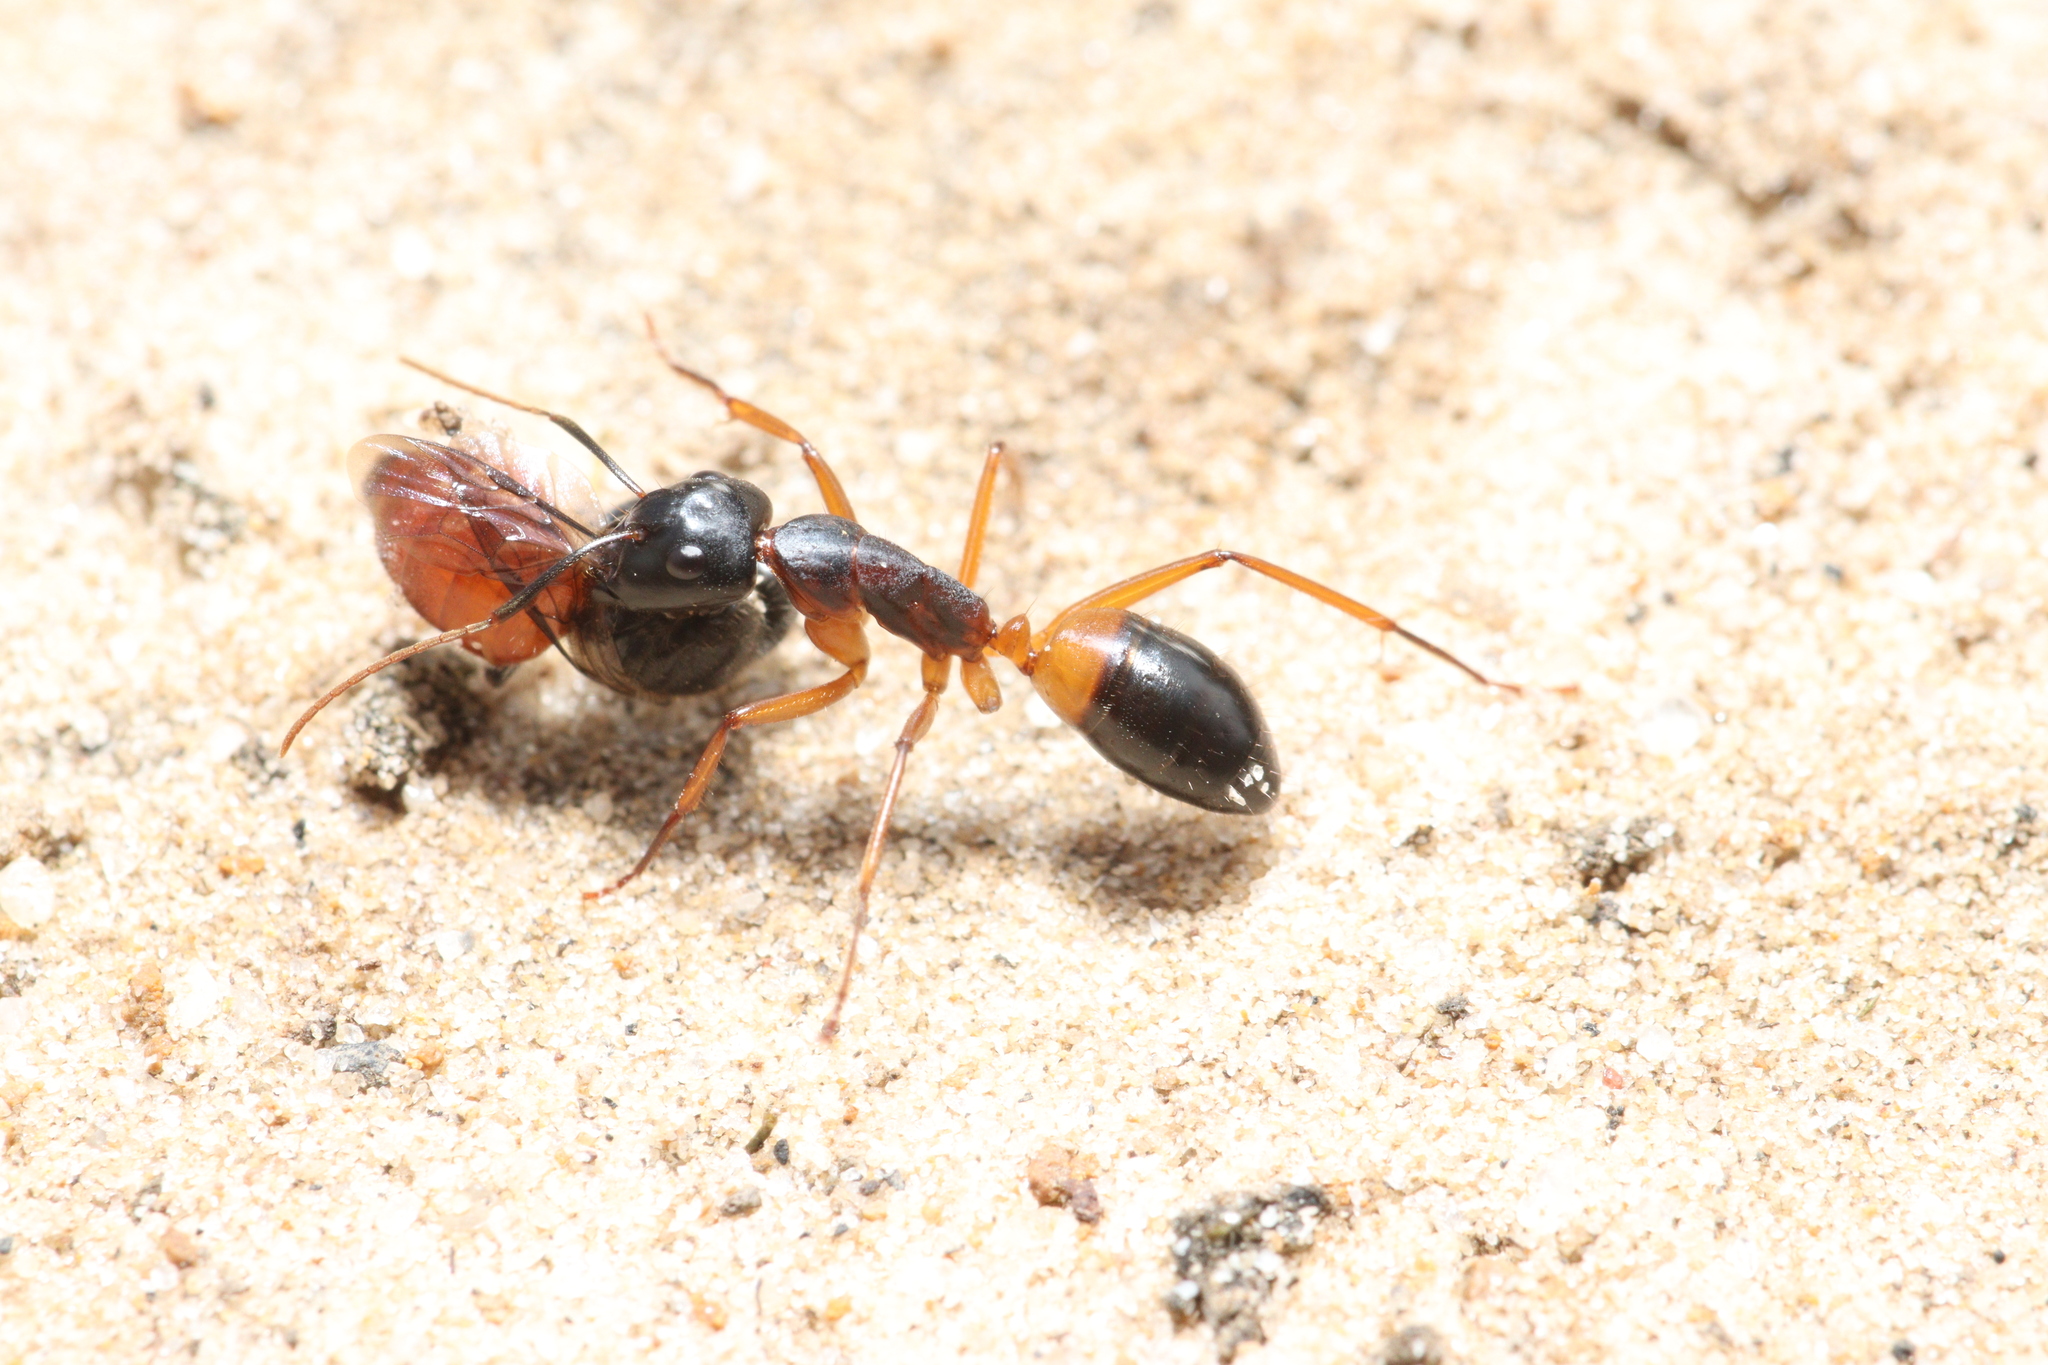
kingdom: Animalia
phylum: Arthropoda
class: Insecta
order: Hymenoptera
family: Formicidae
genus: Camponotus
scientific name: Camponotus consobrinus
